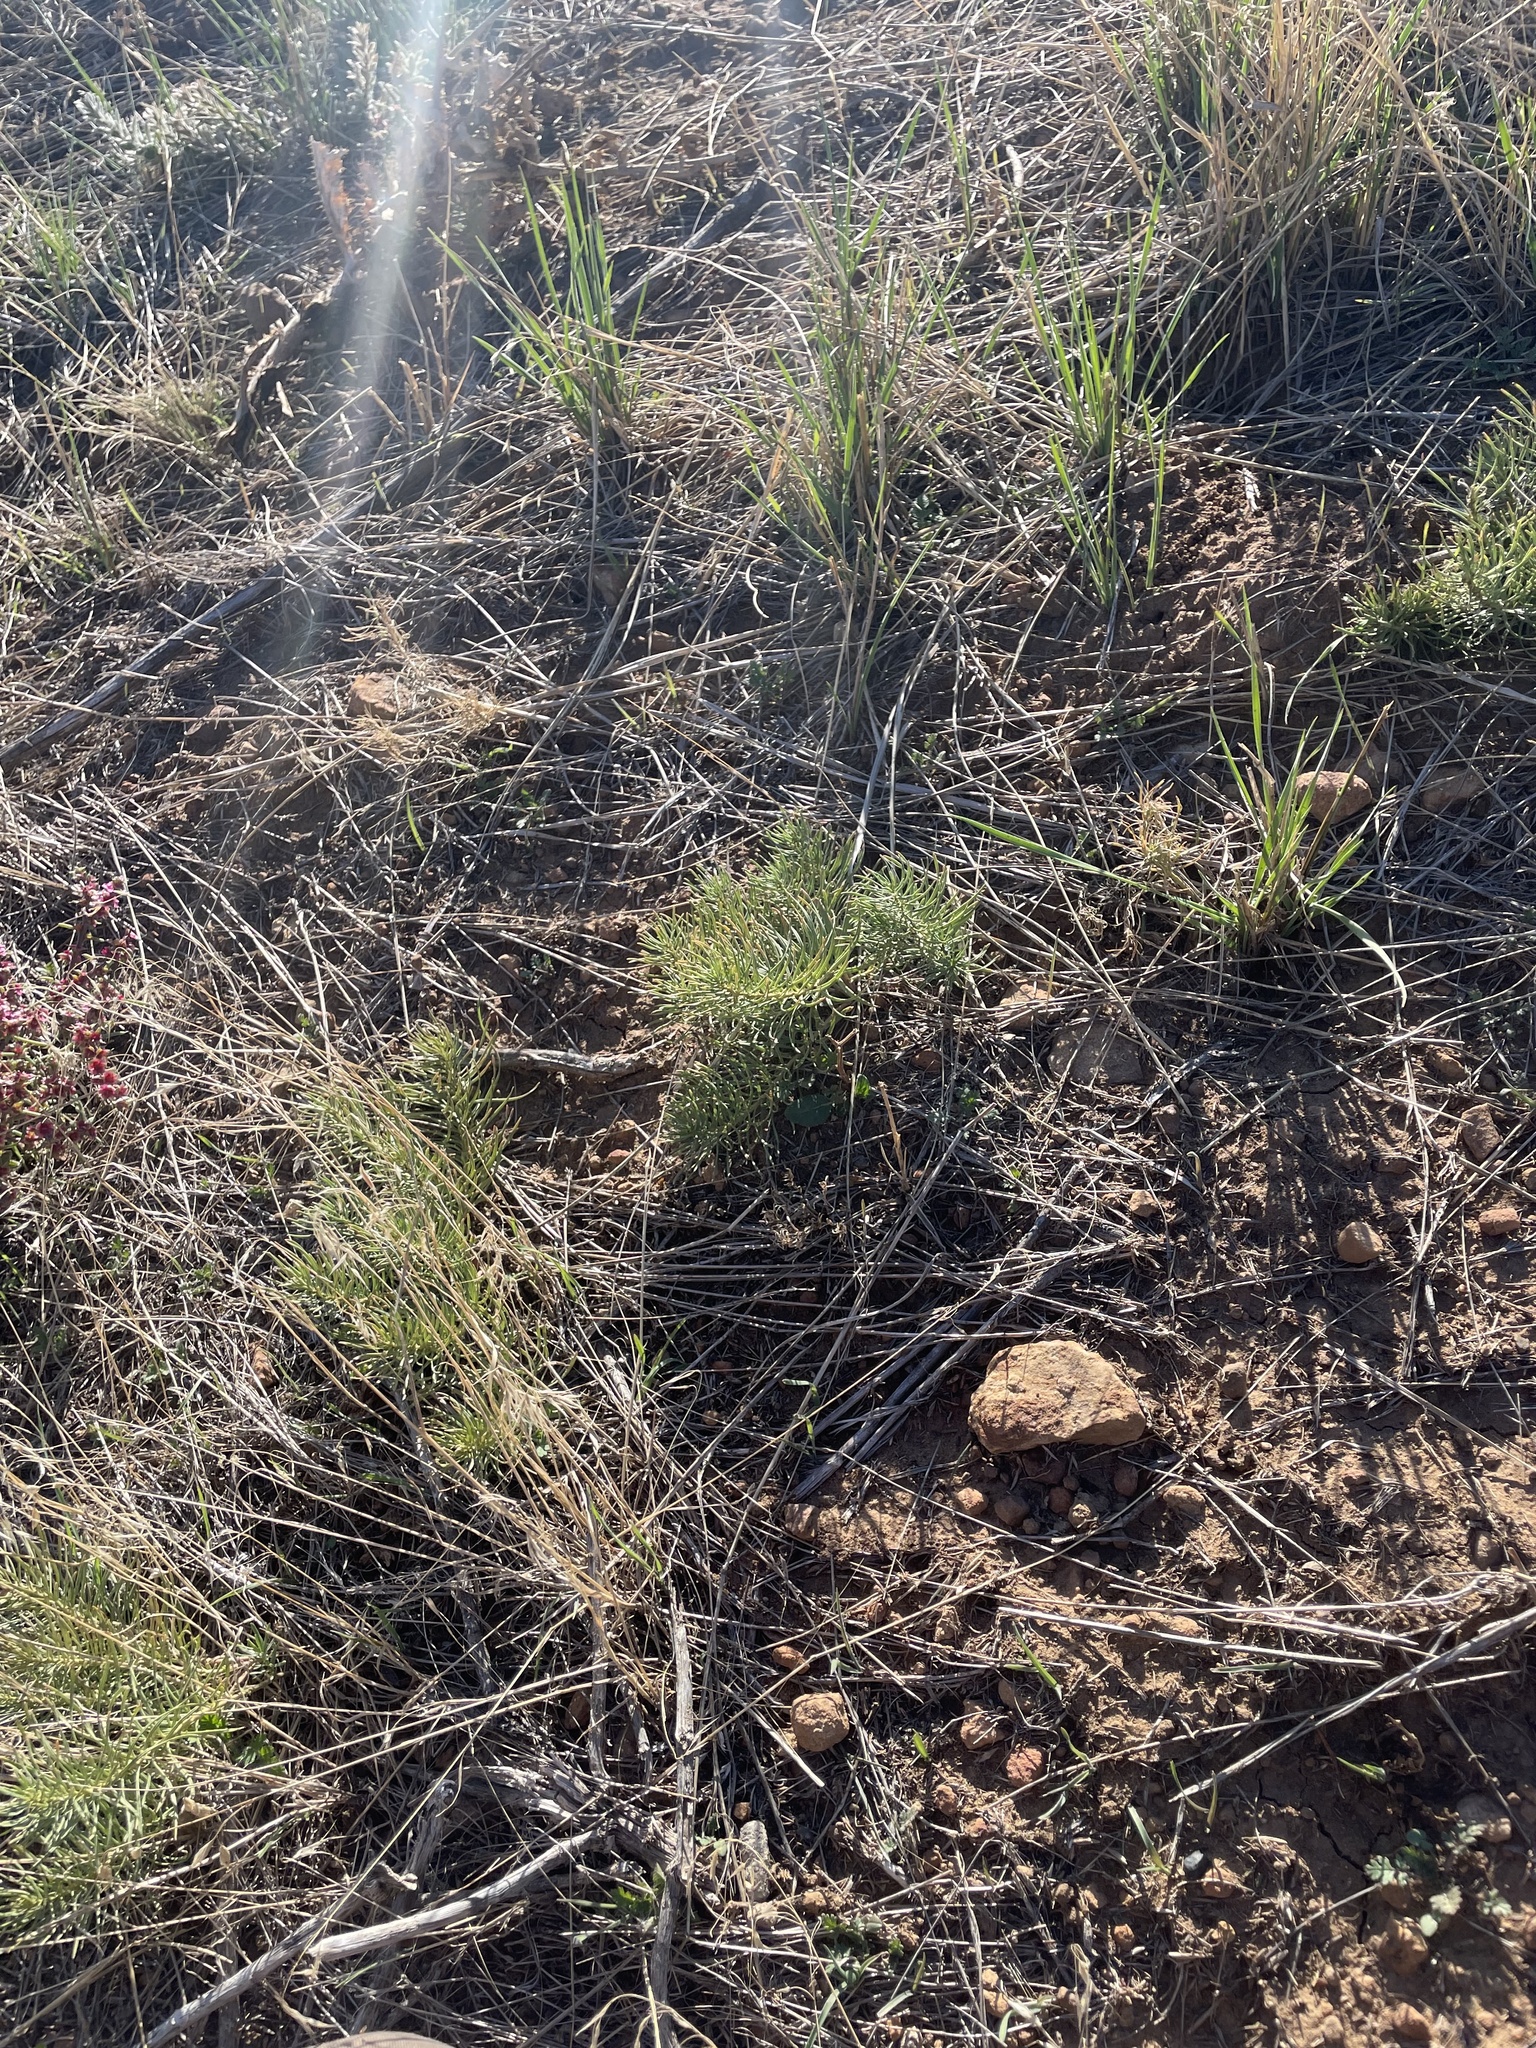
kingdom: Plantae
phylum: Tracheophyta
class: Magnoliopsida
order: Gentianales
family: Apocynaceae
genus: Asclepias
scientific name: Asclepias pumila
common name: Dwarf milkweed
